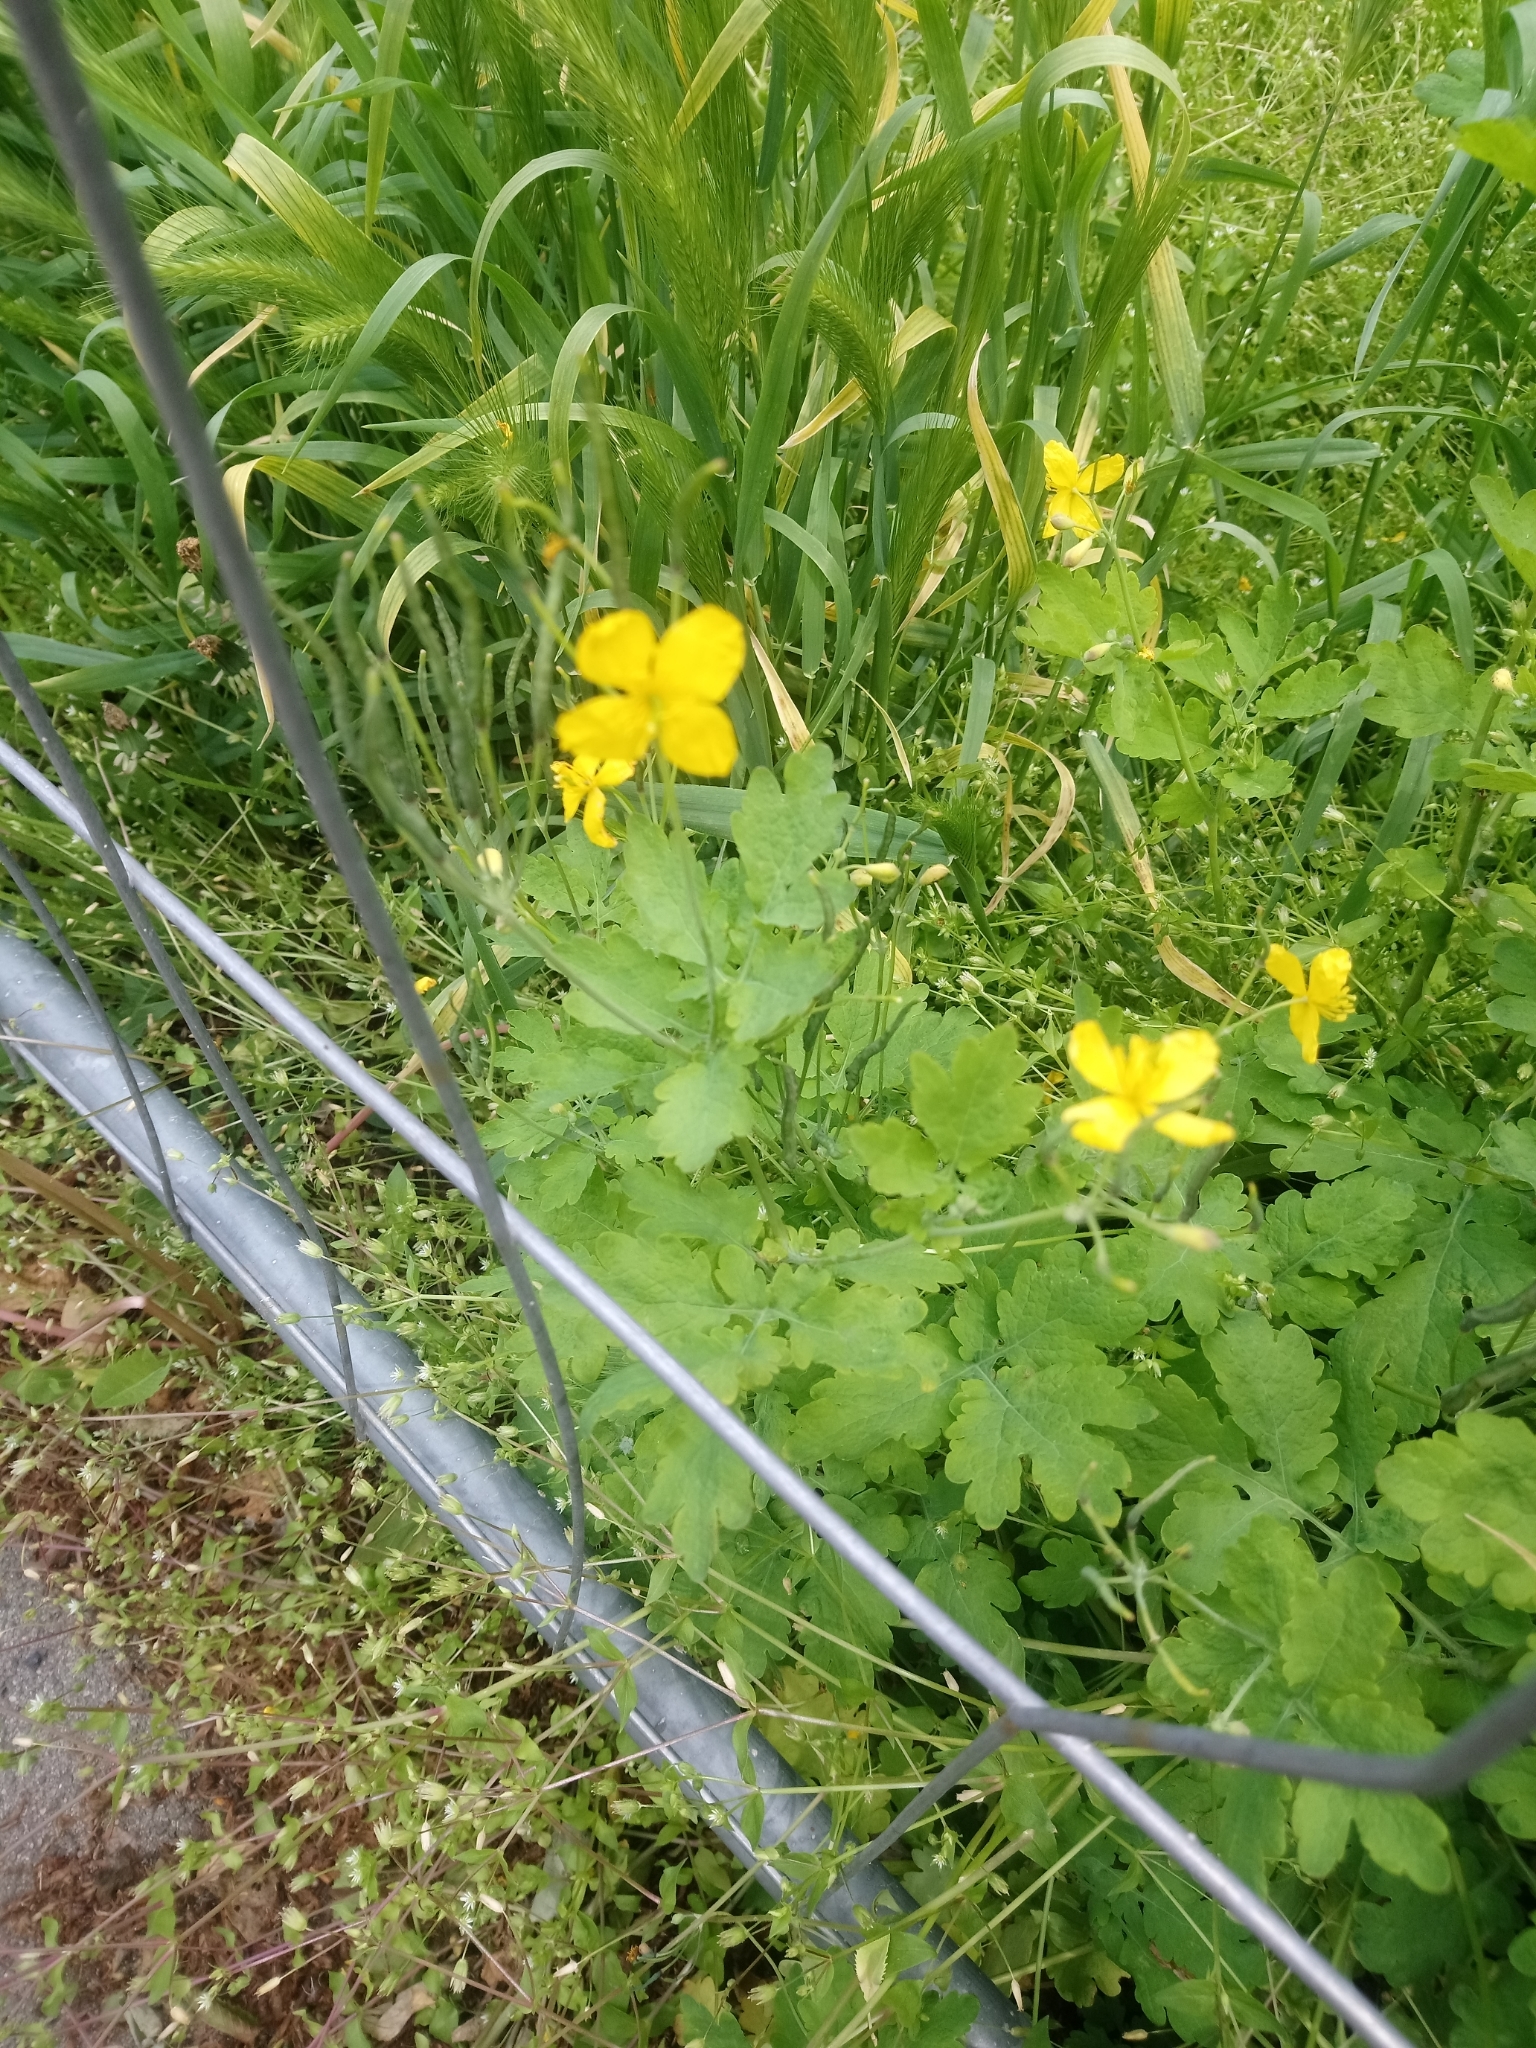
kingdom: Plantae
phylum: Tracheophyta
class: Magnoliopsida
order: Ranunculales
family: Papaveraceae
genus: Chelidonium
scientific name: Chelidonium majus
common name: Greater celandine
